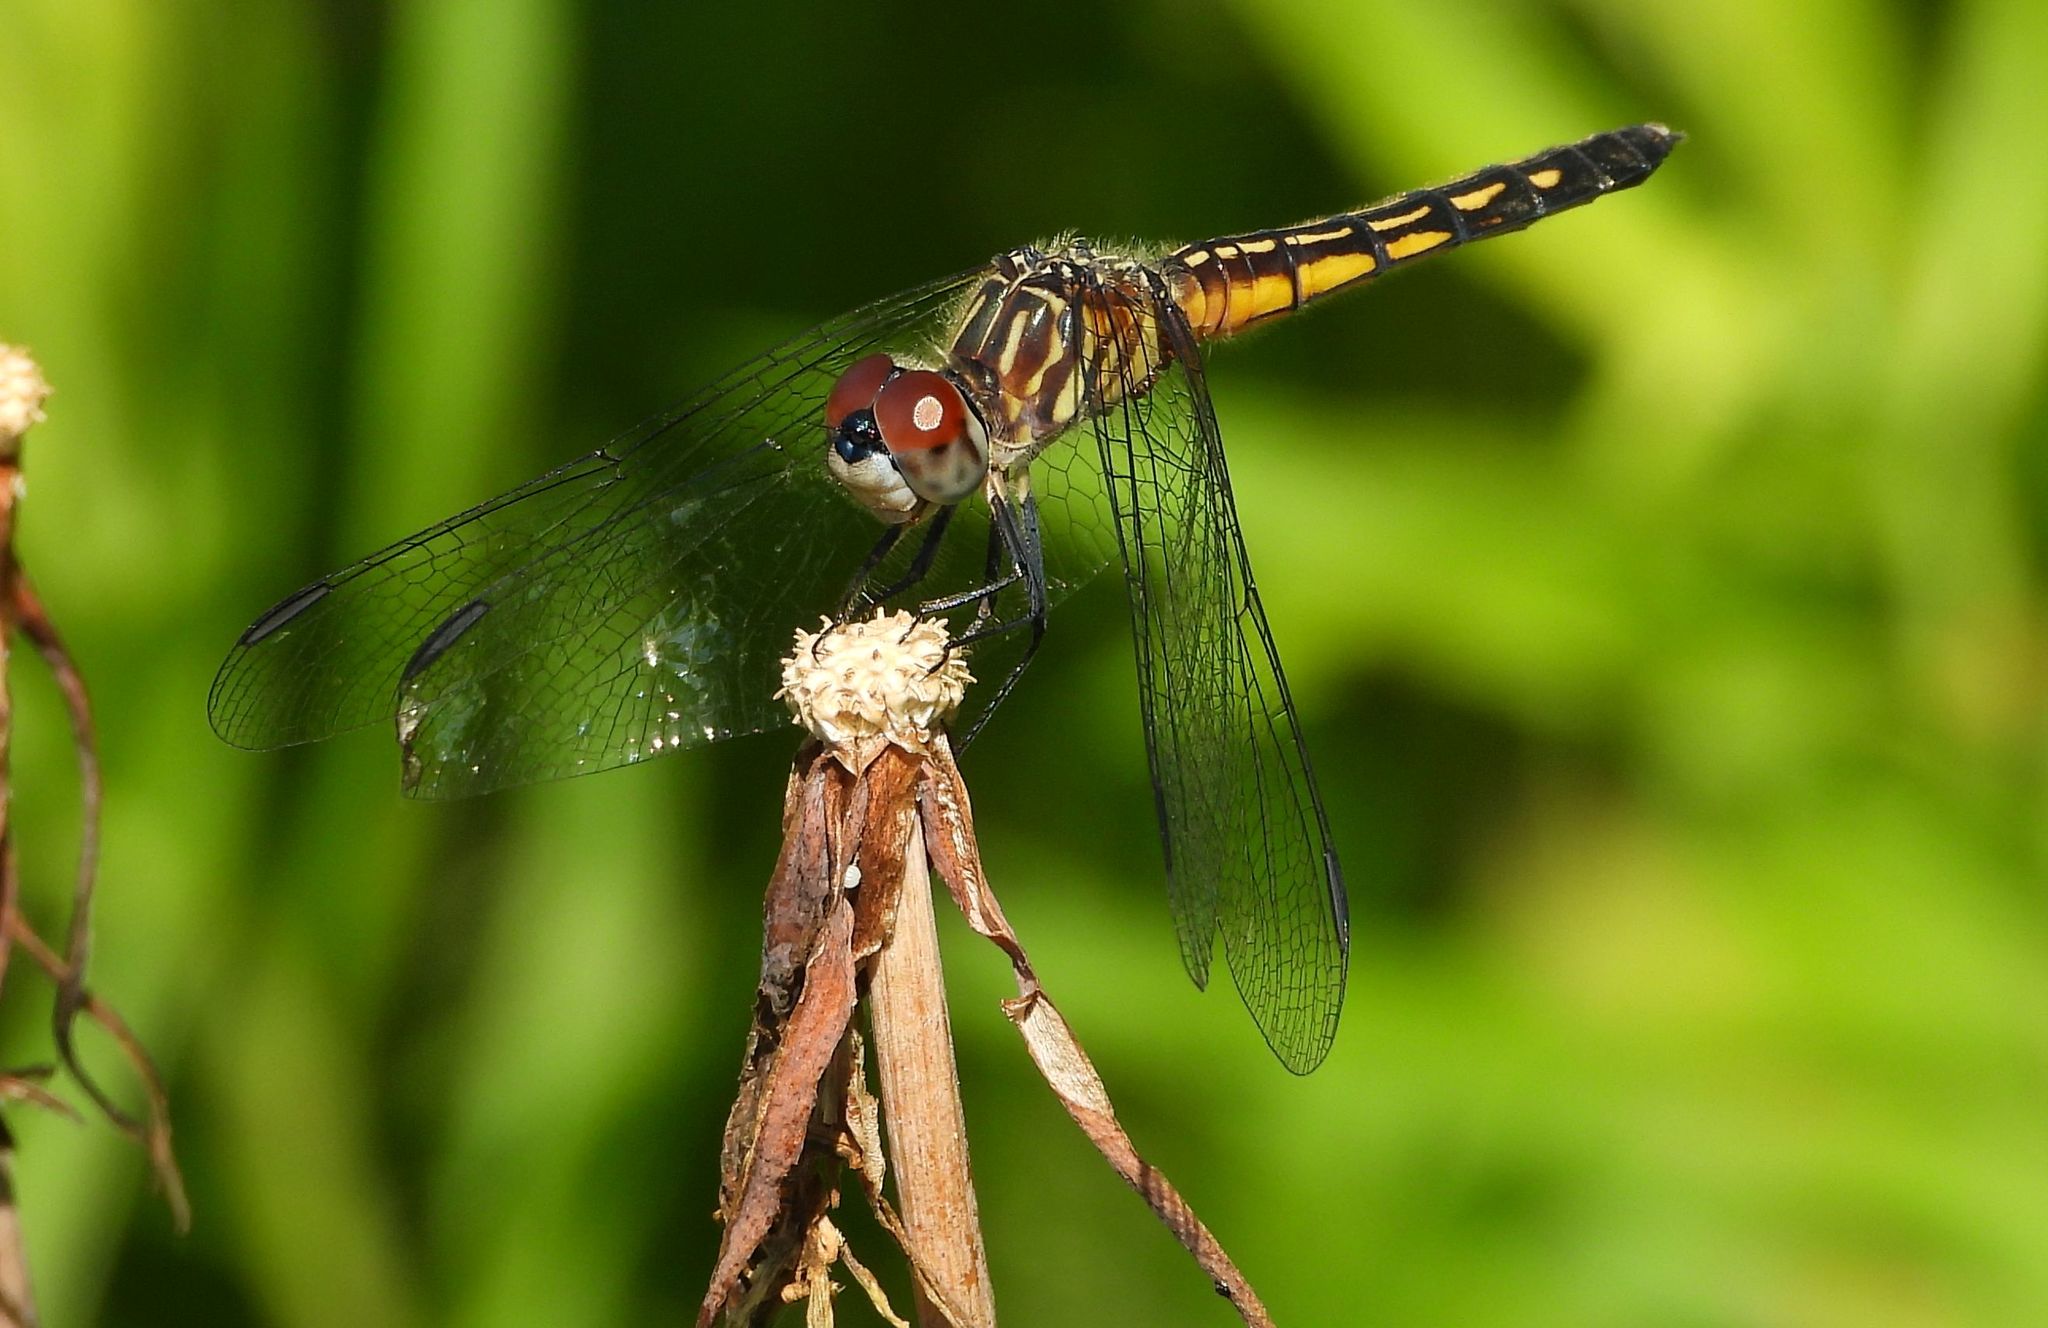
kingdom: Animalia
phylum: Arthropoda
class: Insecta
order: Odonata
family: Libellulidae
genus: Pachydiplax
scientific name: Pachydiplax longipennis
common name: Blue dasher
